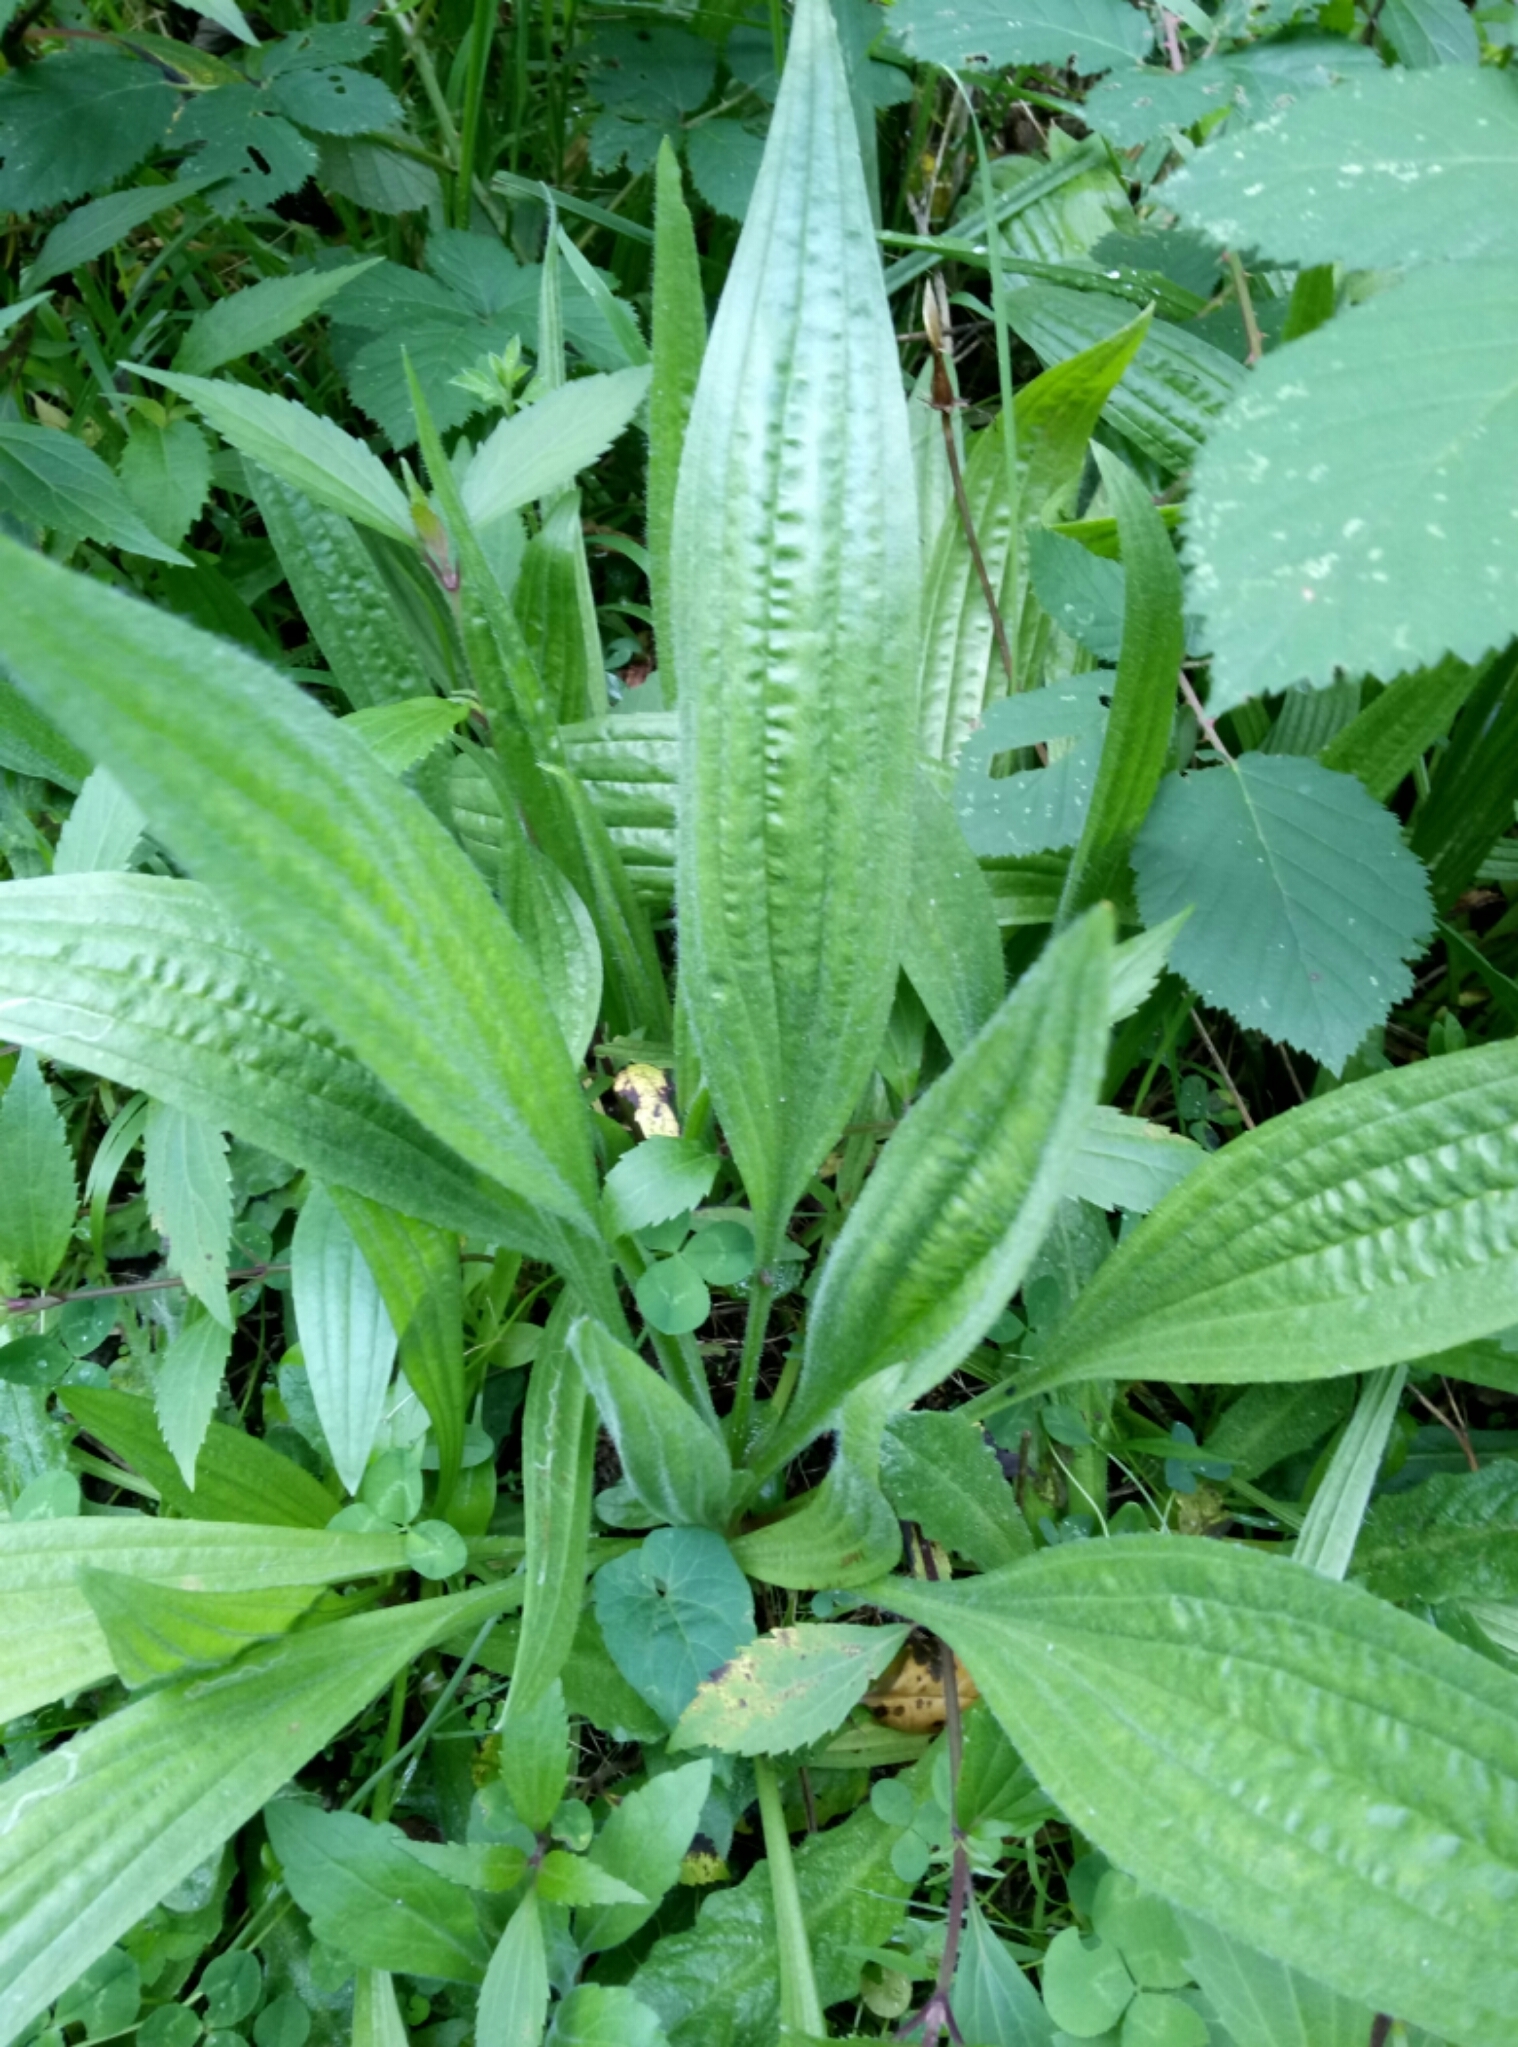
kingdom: Plantae
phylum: Tracheophyta
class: Magnoliopsida
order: Lamiales
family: Plantaginaceae
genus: Plantago
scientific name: Plantago lanceolata
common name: Ribwort plantain
